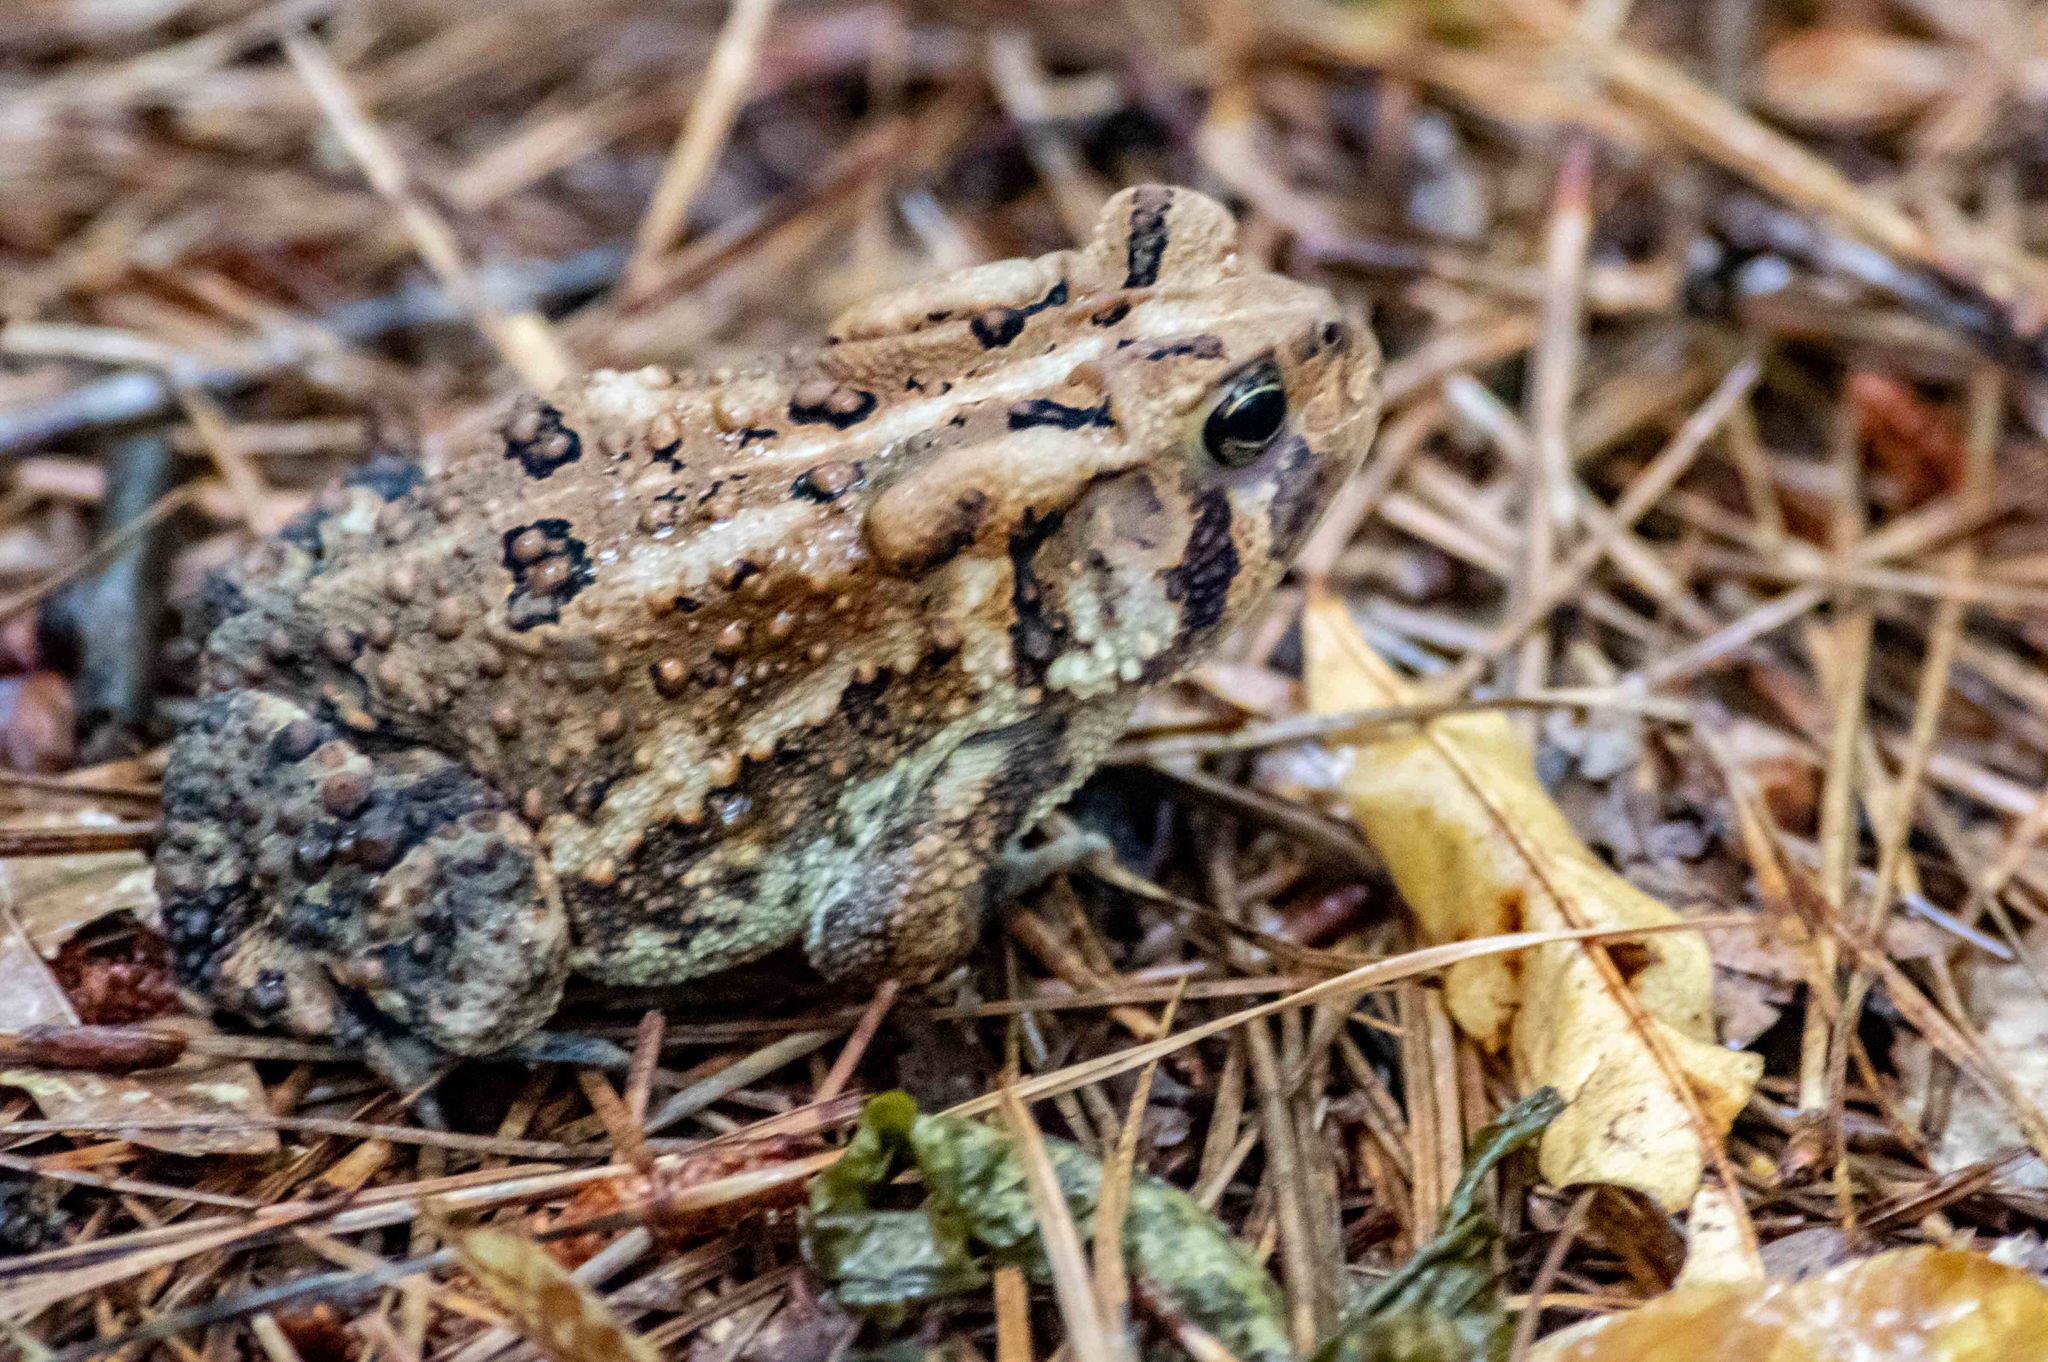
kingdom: Animalia
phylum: Chordata
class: Amphibia
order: Anura
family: Bufonidae
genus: Anaxyrus
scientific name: Anaxyrus americanus
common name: American toad
